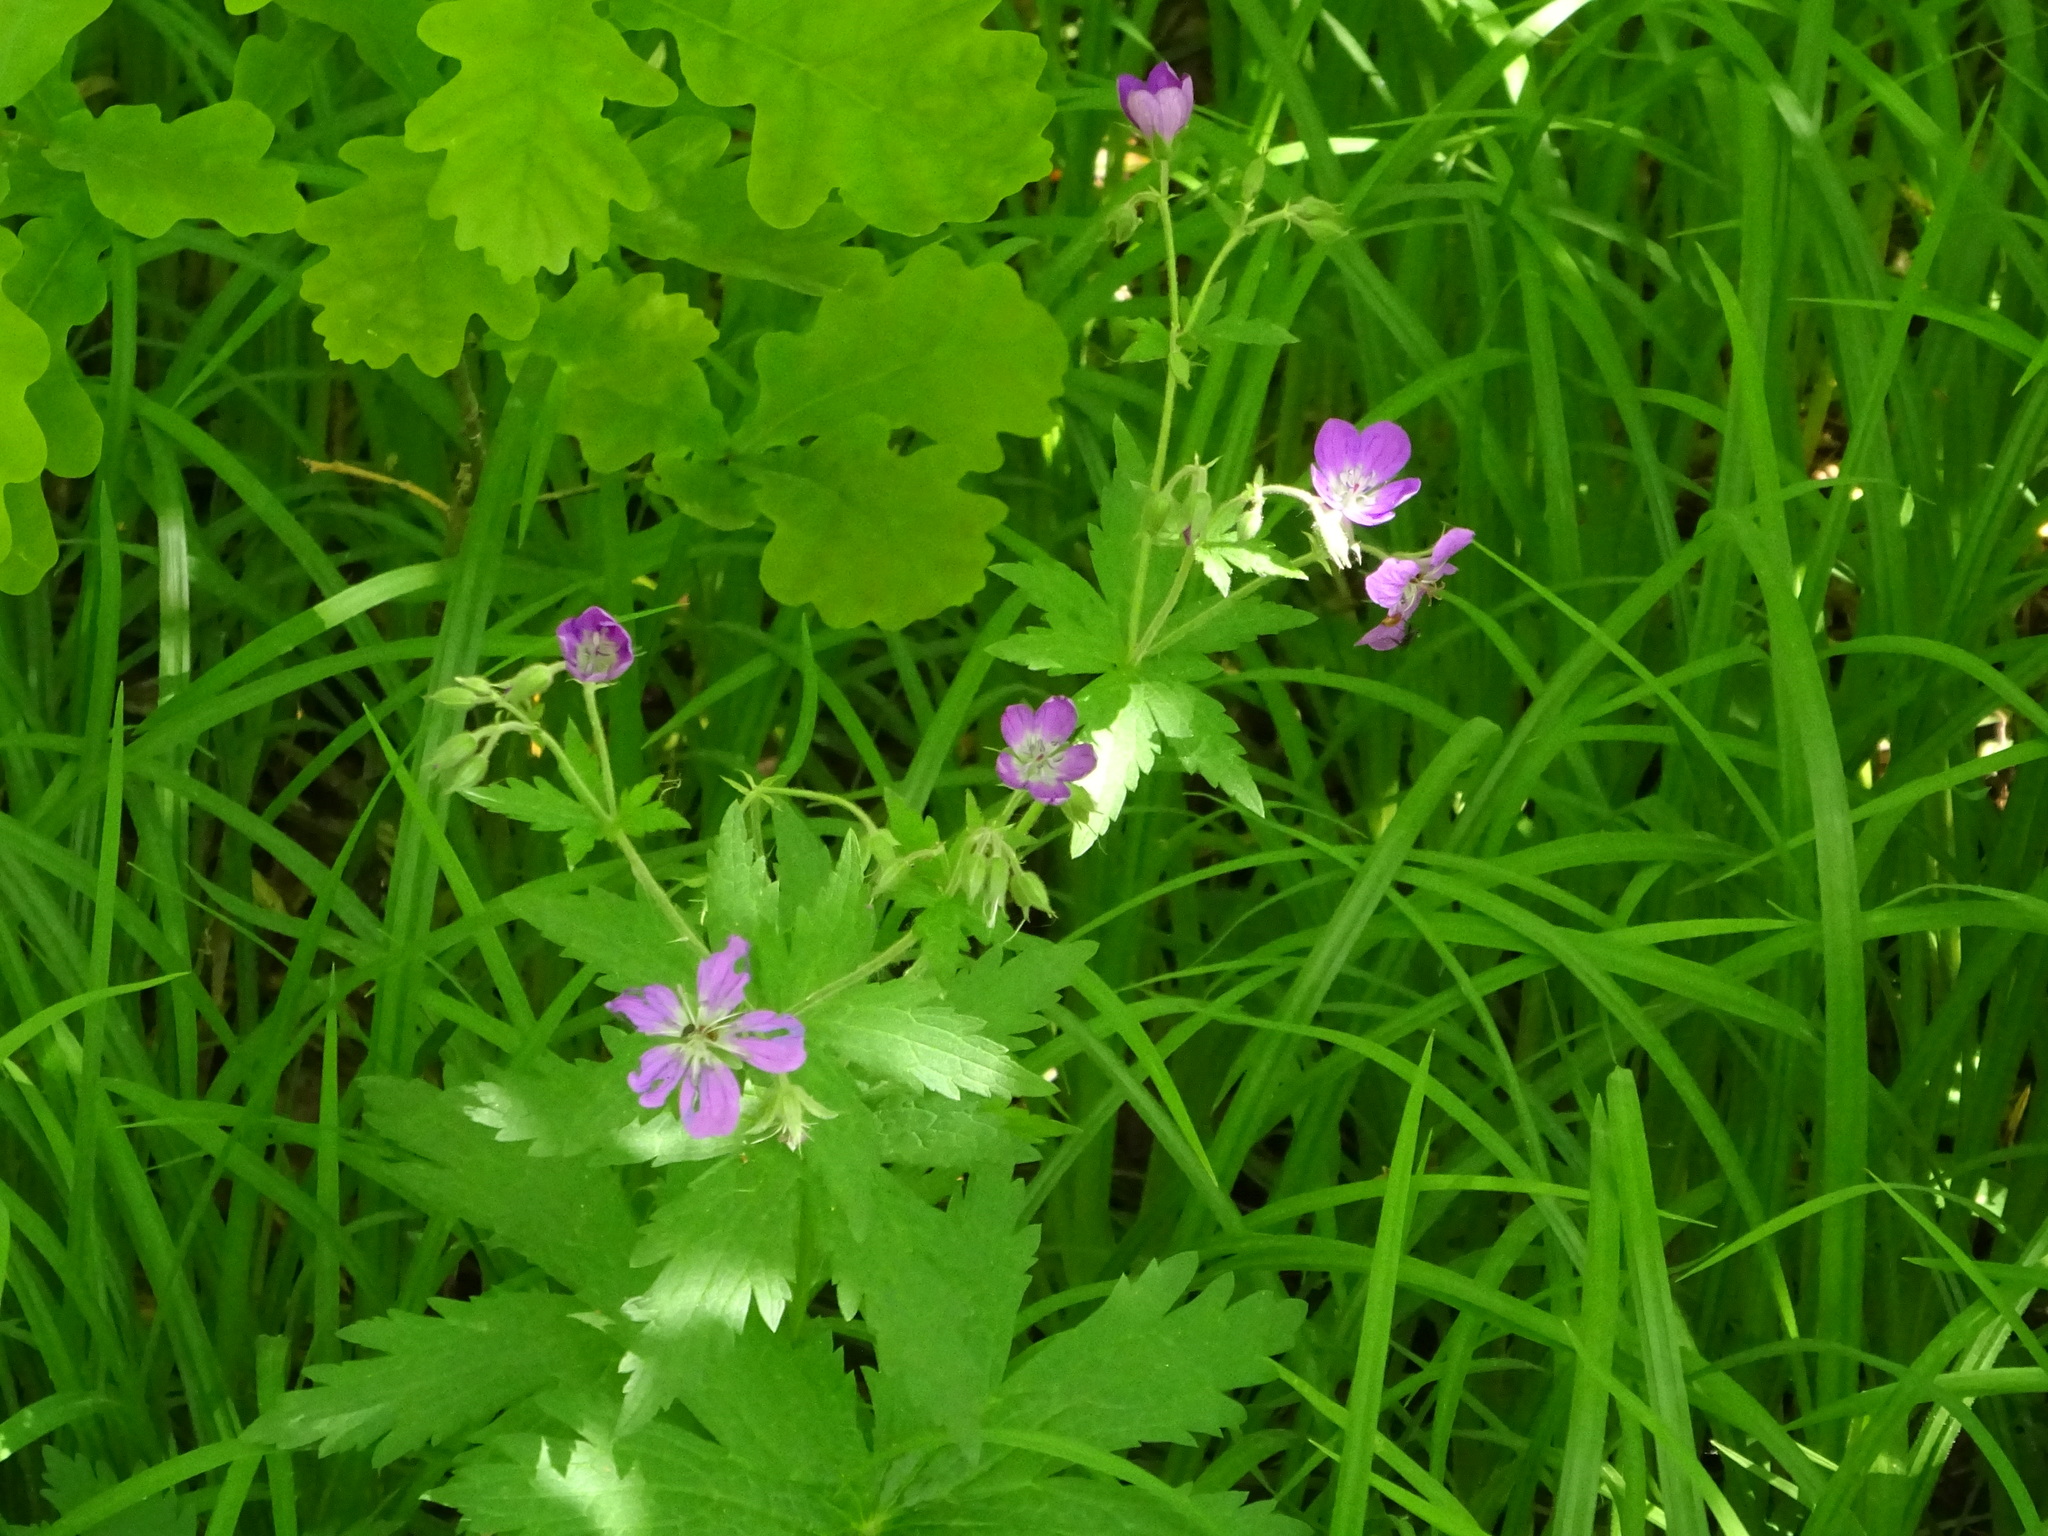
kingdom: Plantae
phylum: Tracheophyta
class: Magnoliopsida
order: Geraniales
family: Geraniaceae
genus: Geranium
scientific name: Geranium sylvaticum
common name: Wood crane's-bill
